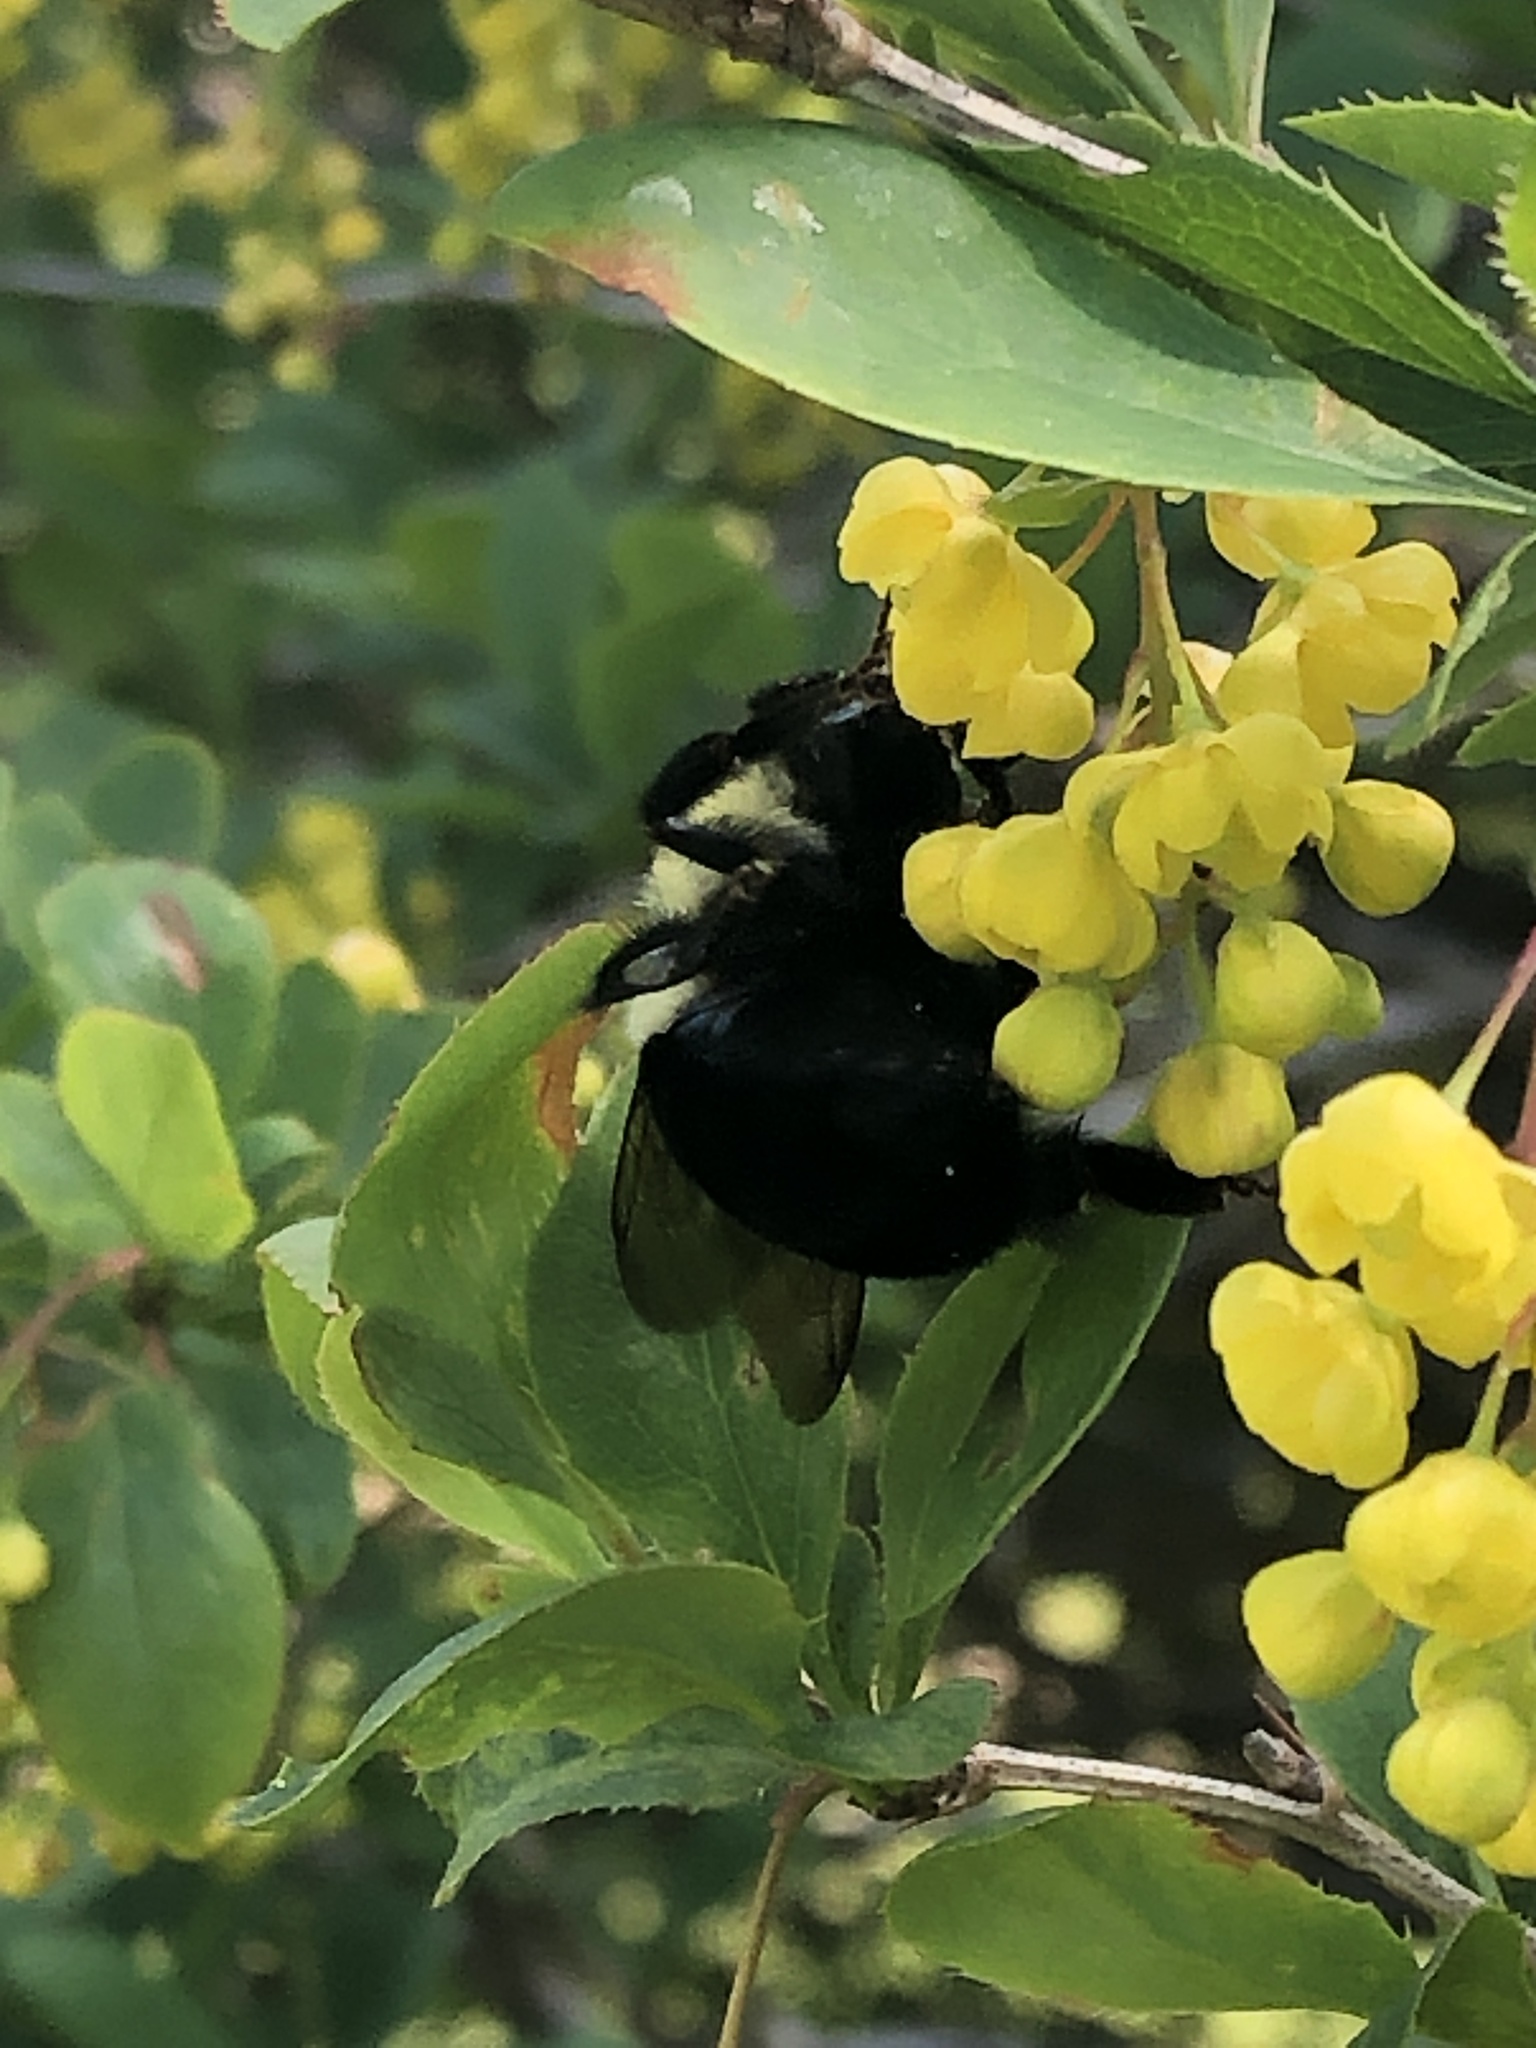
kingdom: Animalia
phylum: Arthropoda
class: Insecta
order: Hymenoptera
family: Apidae
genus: Bombus
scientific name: Bombus impatiens
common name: Common eastern bumble bee
